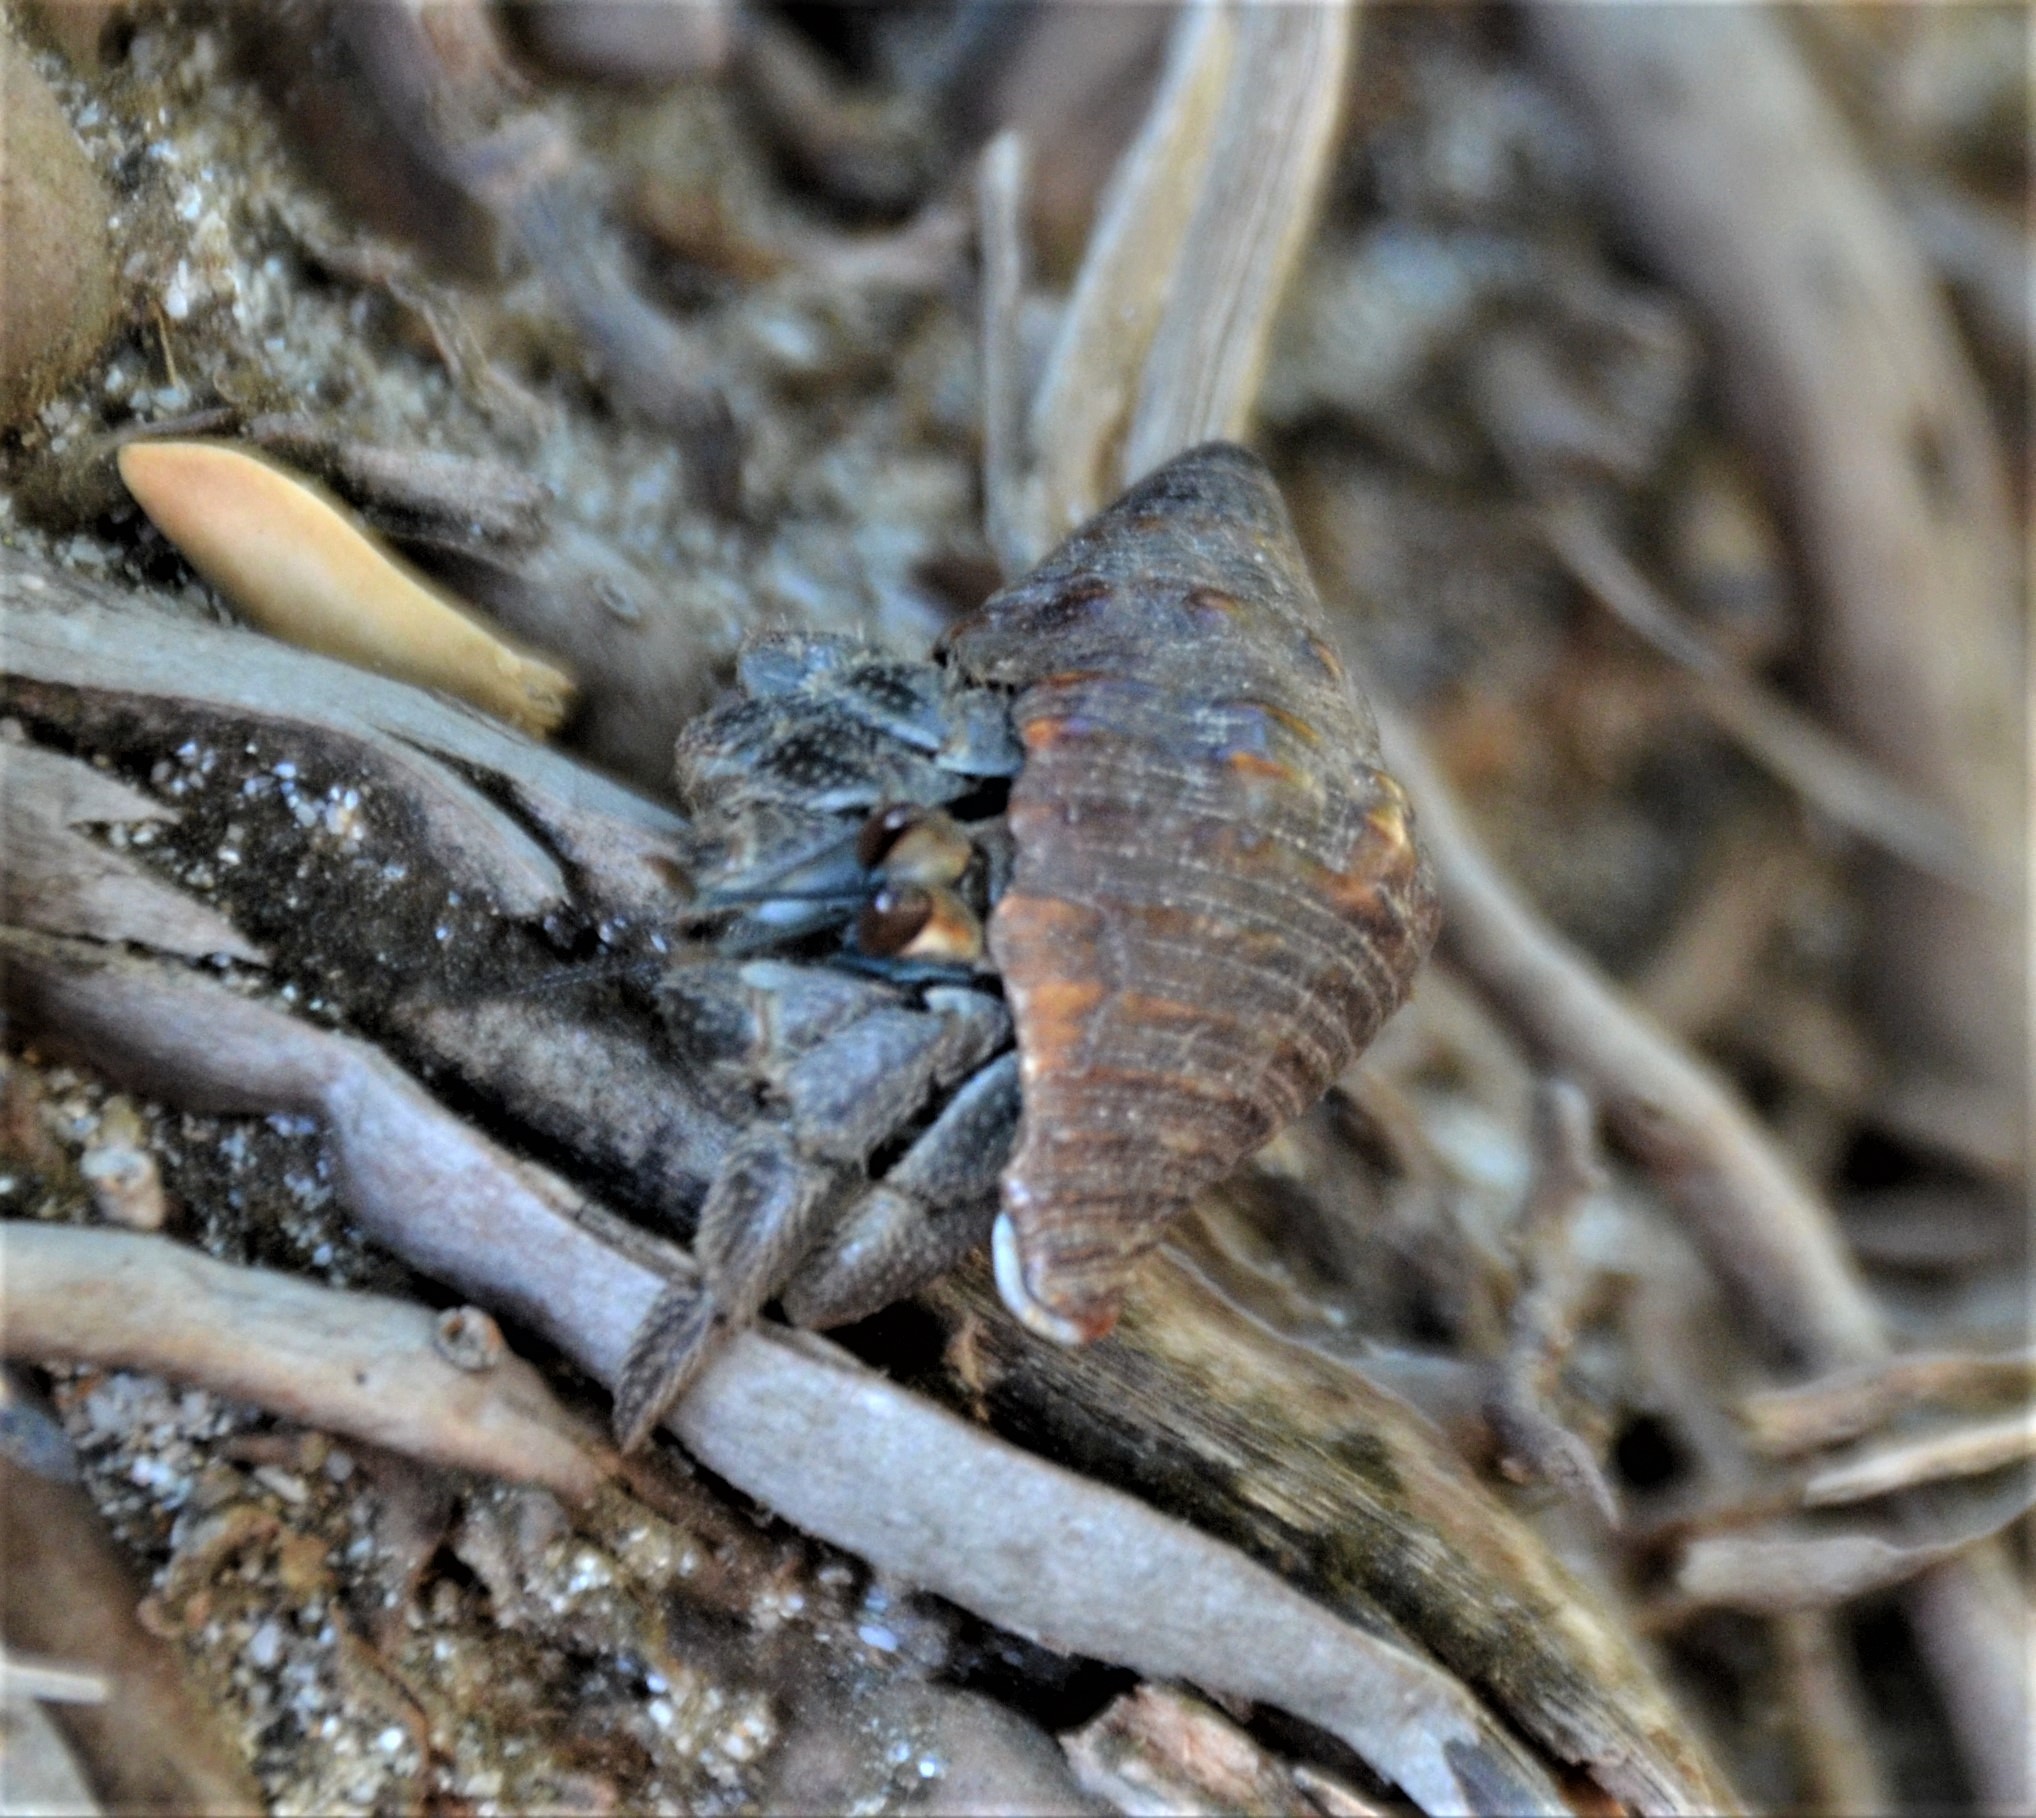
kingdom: Animalia
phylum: Arthropoda
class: Malacostraca
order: Decapoda
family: Coenobitidae
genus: Coenobita
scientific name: Coenobita compressus
